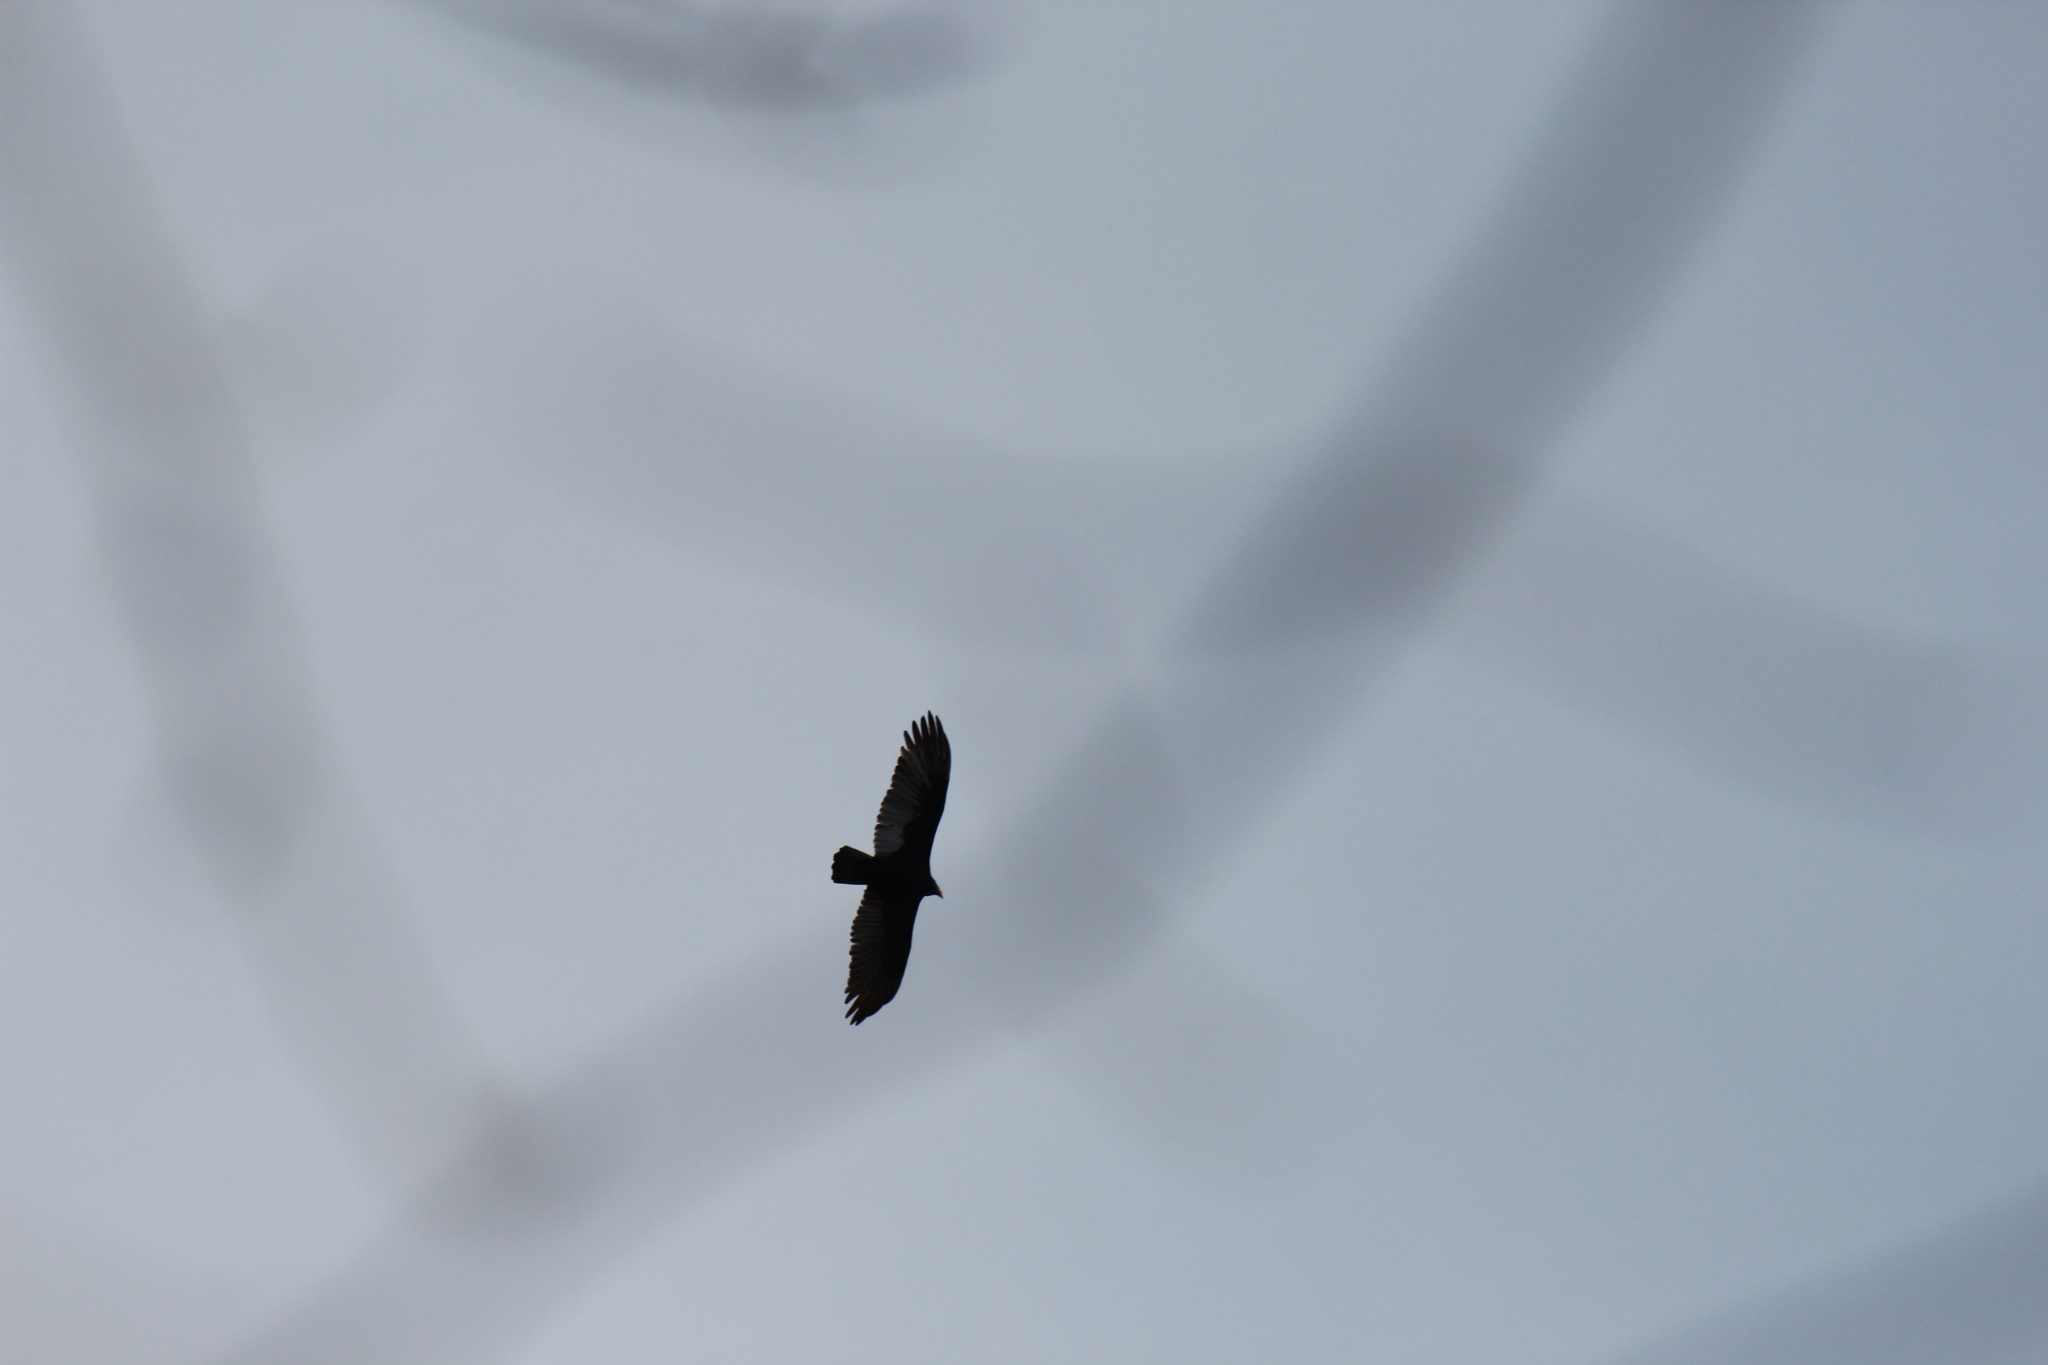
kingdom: Animalia
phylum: Chordata
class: Aves
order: Accipitriformes
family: Cathartidae
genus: Cathartes
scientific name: Cathartes aura
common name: Turkey vulture
